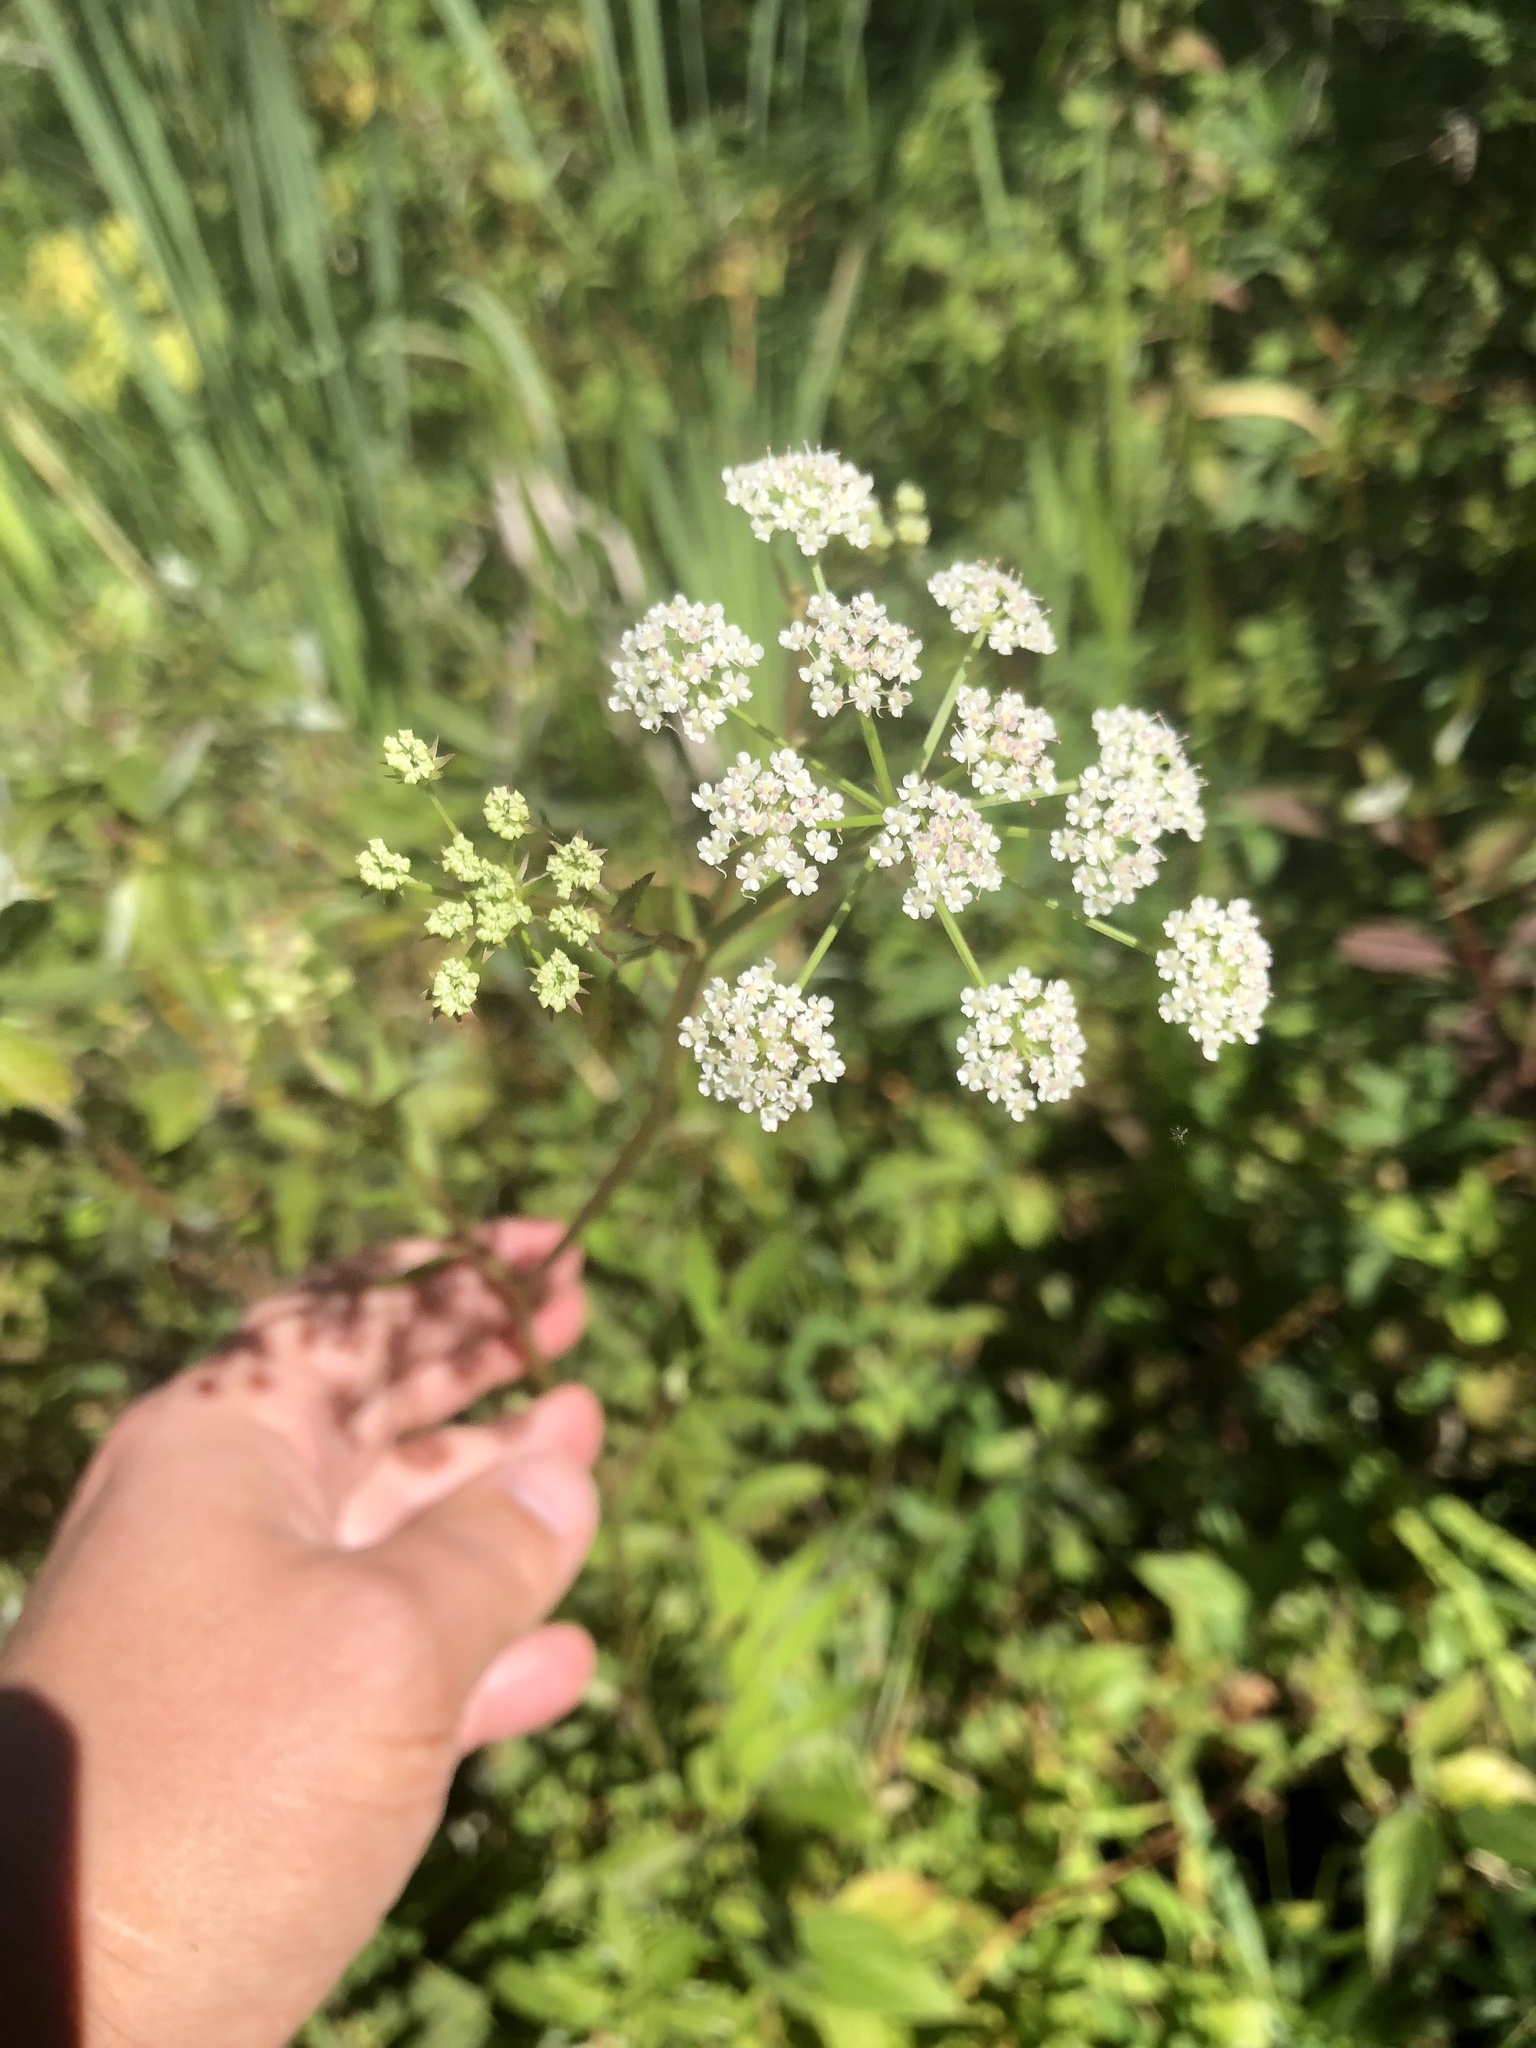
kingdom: Plantae
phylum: Tracheophyta
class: Magnoliopsida
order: Apiales
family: Apiaceae
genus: Cicuta
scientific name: Cicuta maculata
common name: Spotted cowbane
